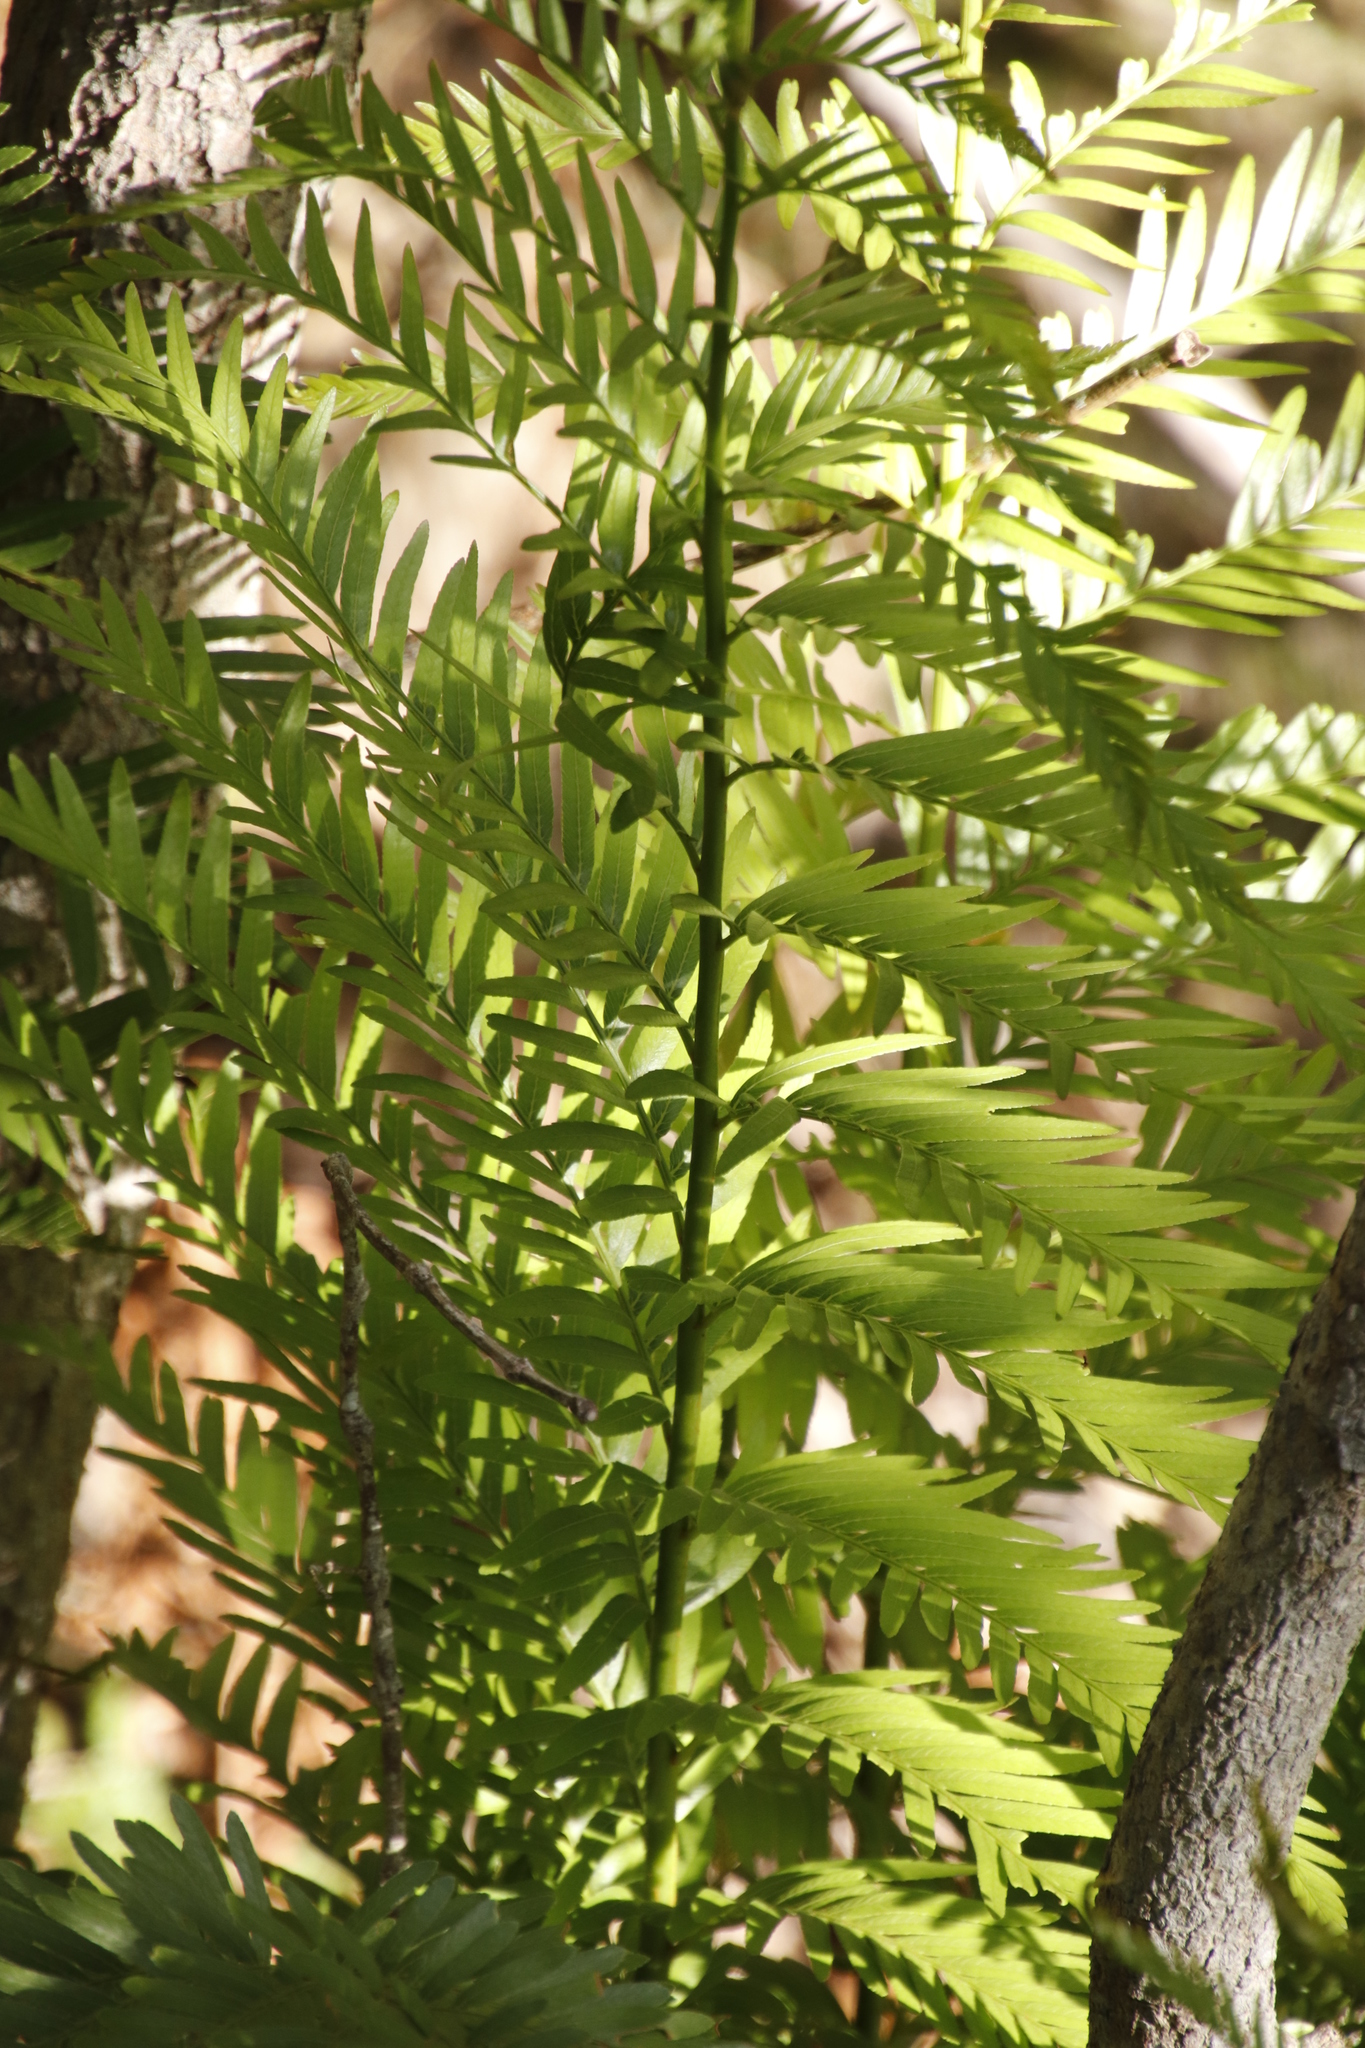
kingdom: Plantae
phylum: Tracheophyta
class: Polypodiopsida
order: Osmundales
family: Osmundaceae
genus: Todea
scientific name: Todea barbara
